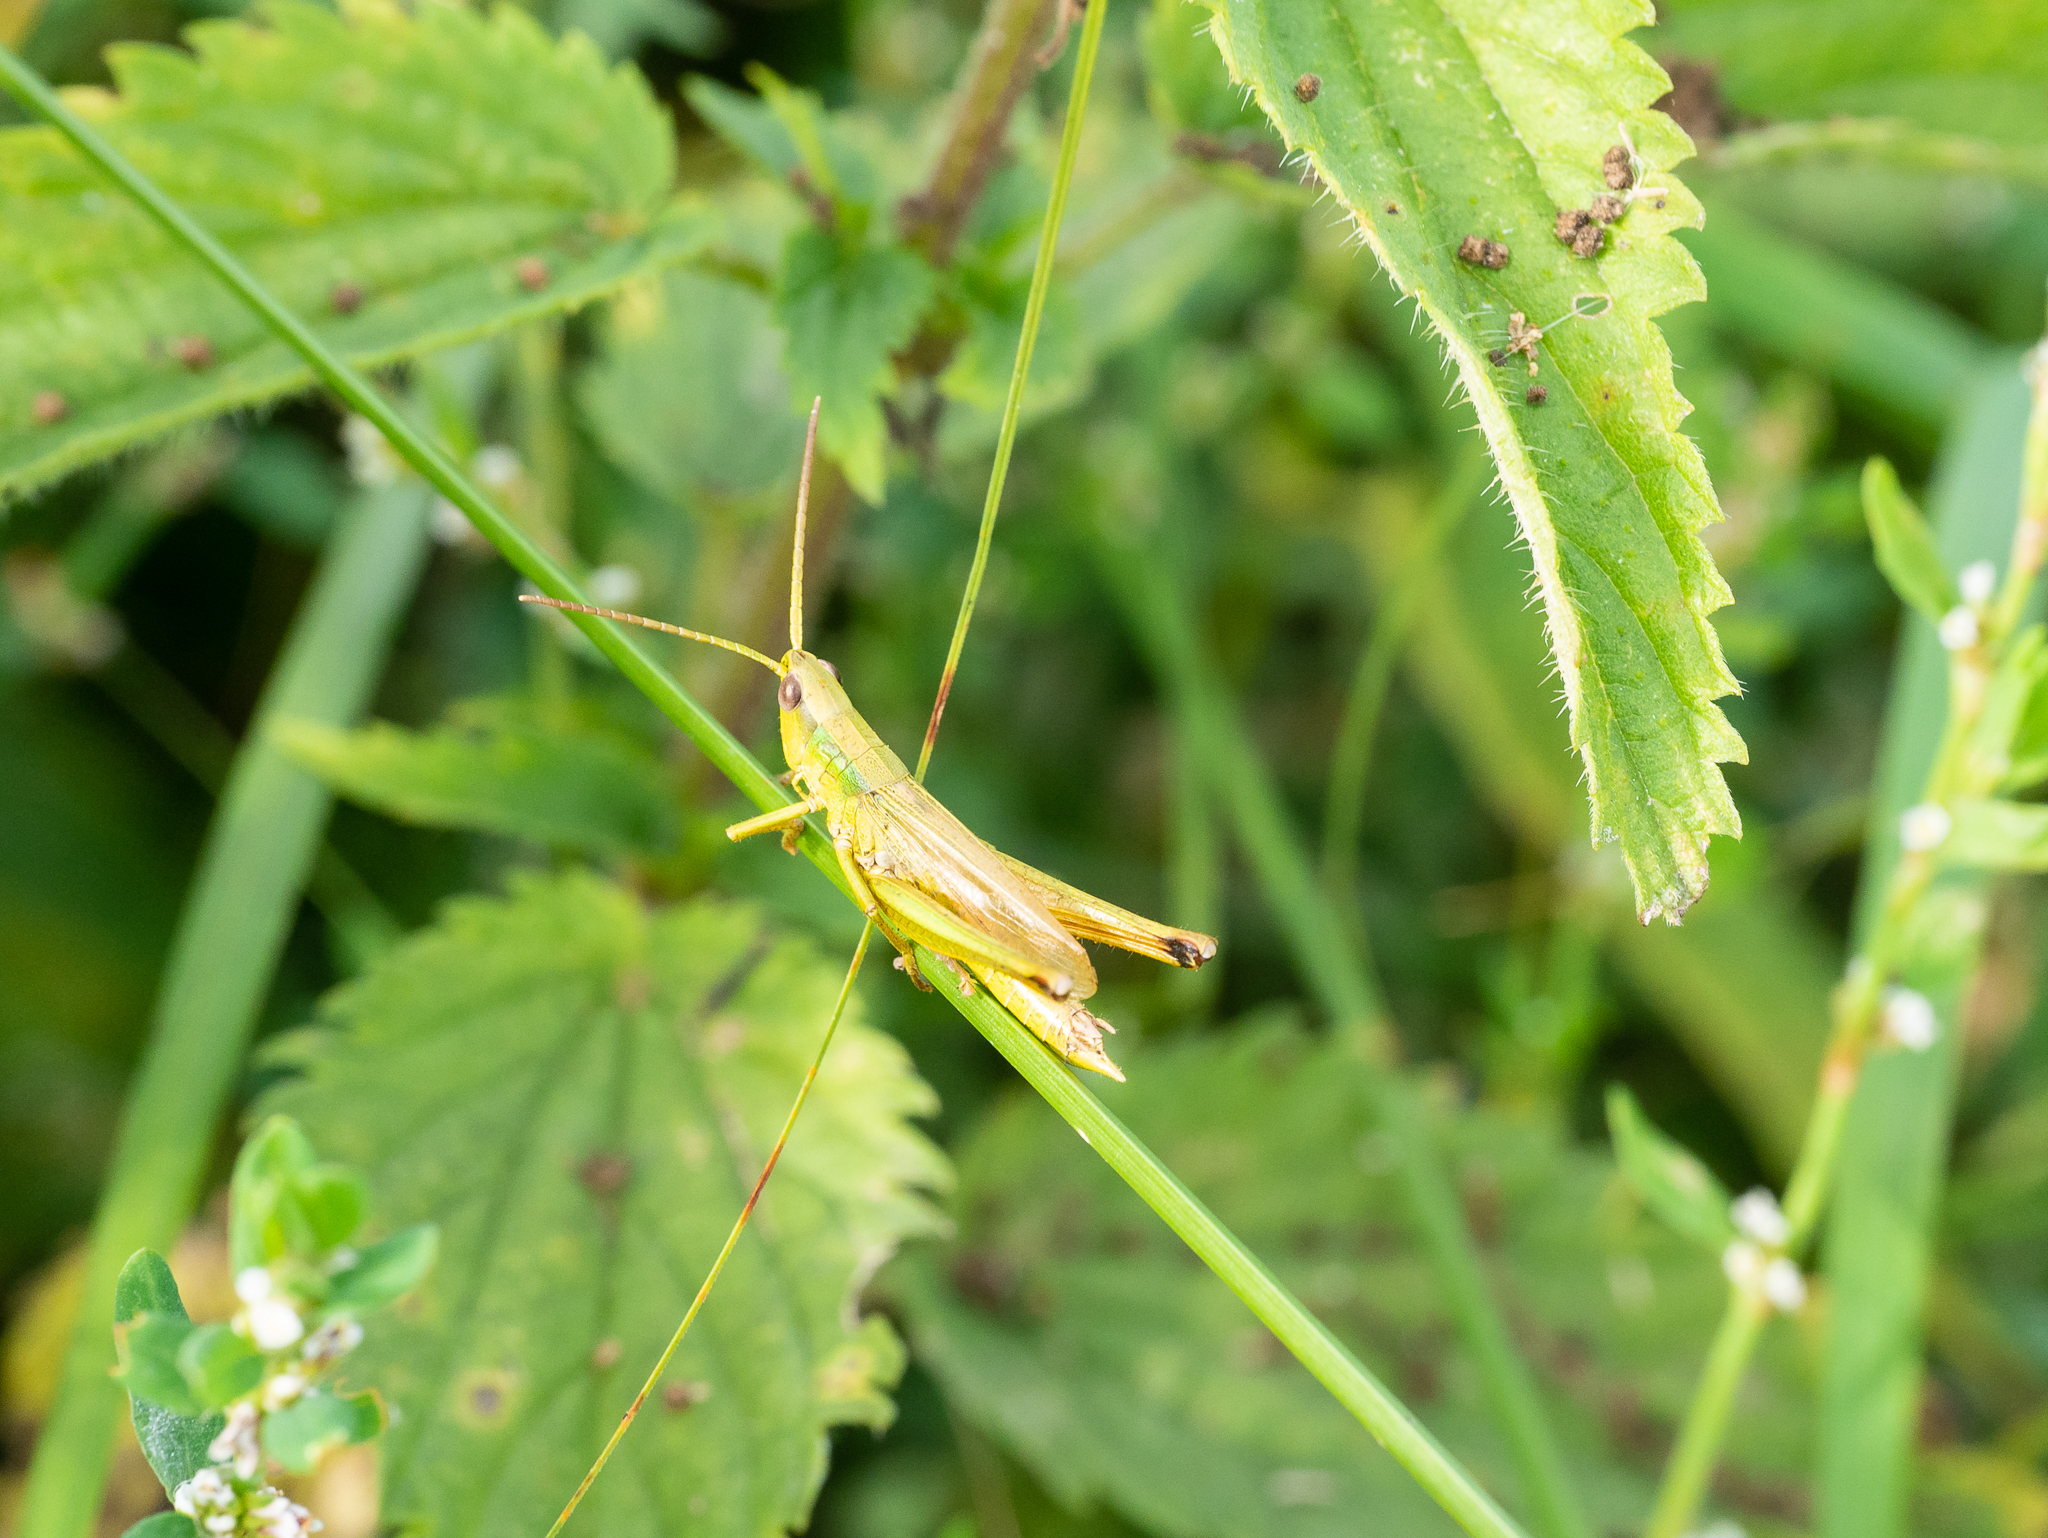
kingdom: Animalia
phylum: Arthropoda
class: Insecta
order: Orthoptera
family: Acrididae
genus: Chrysochraon
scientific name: Chrysochraon dispar
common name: Large gold grasshopper
